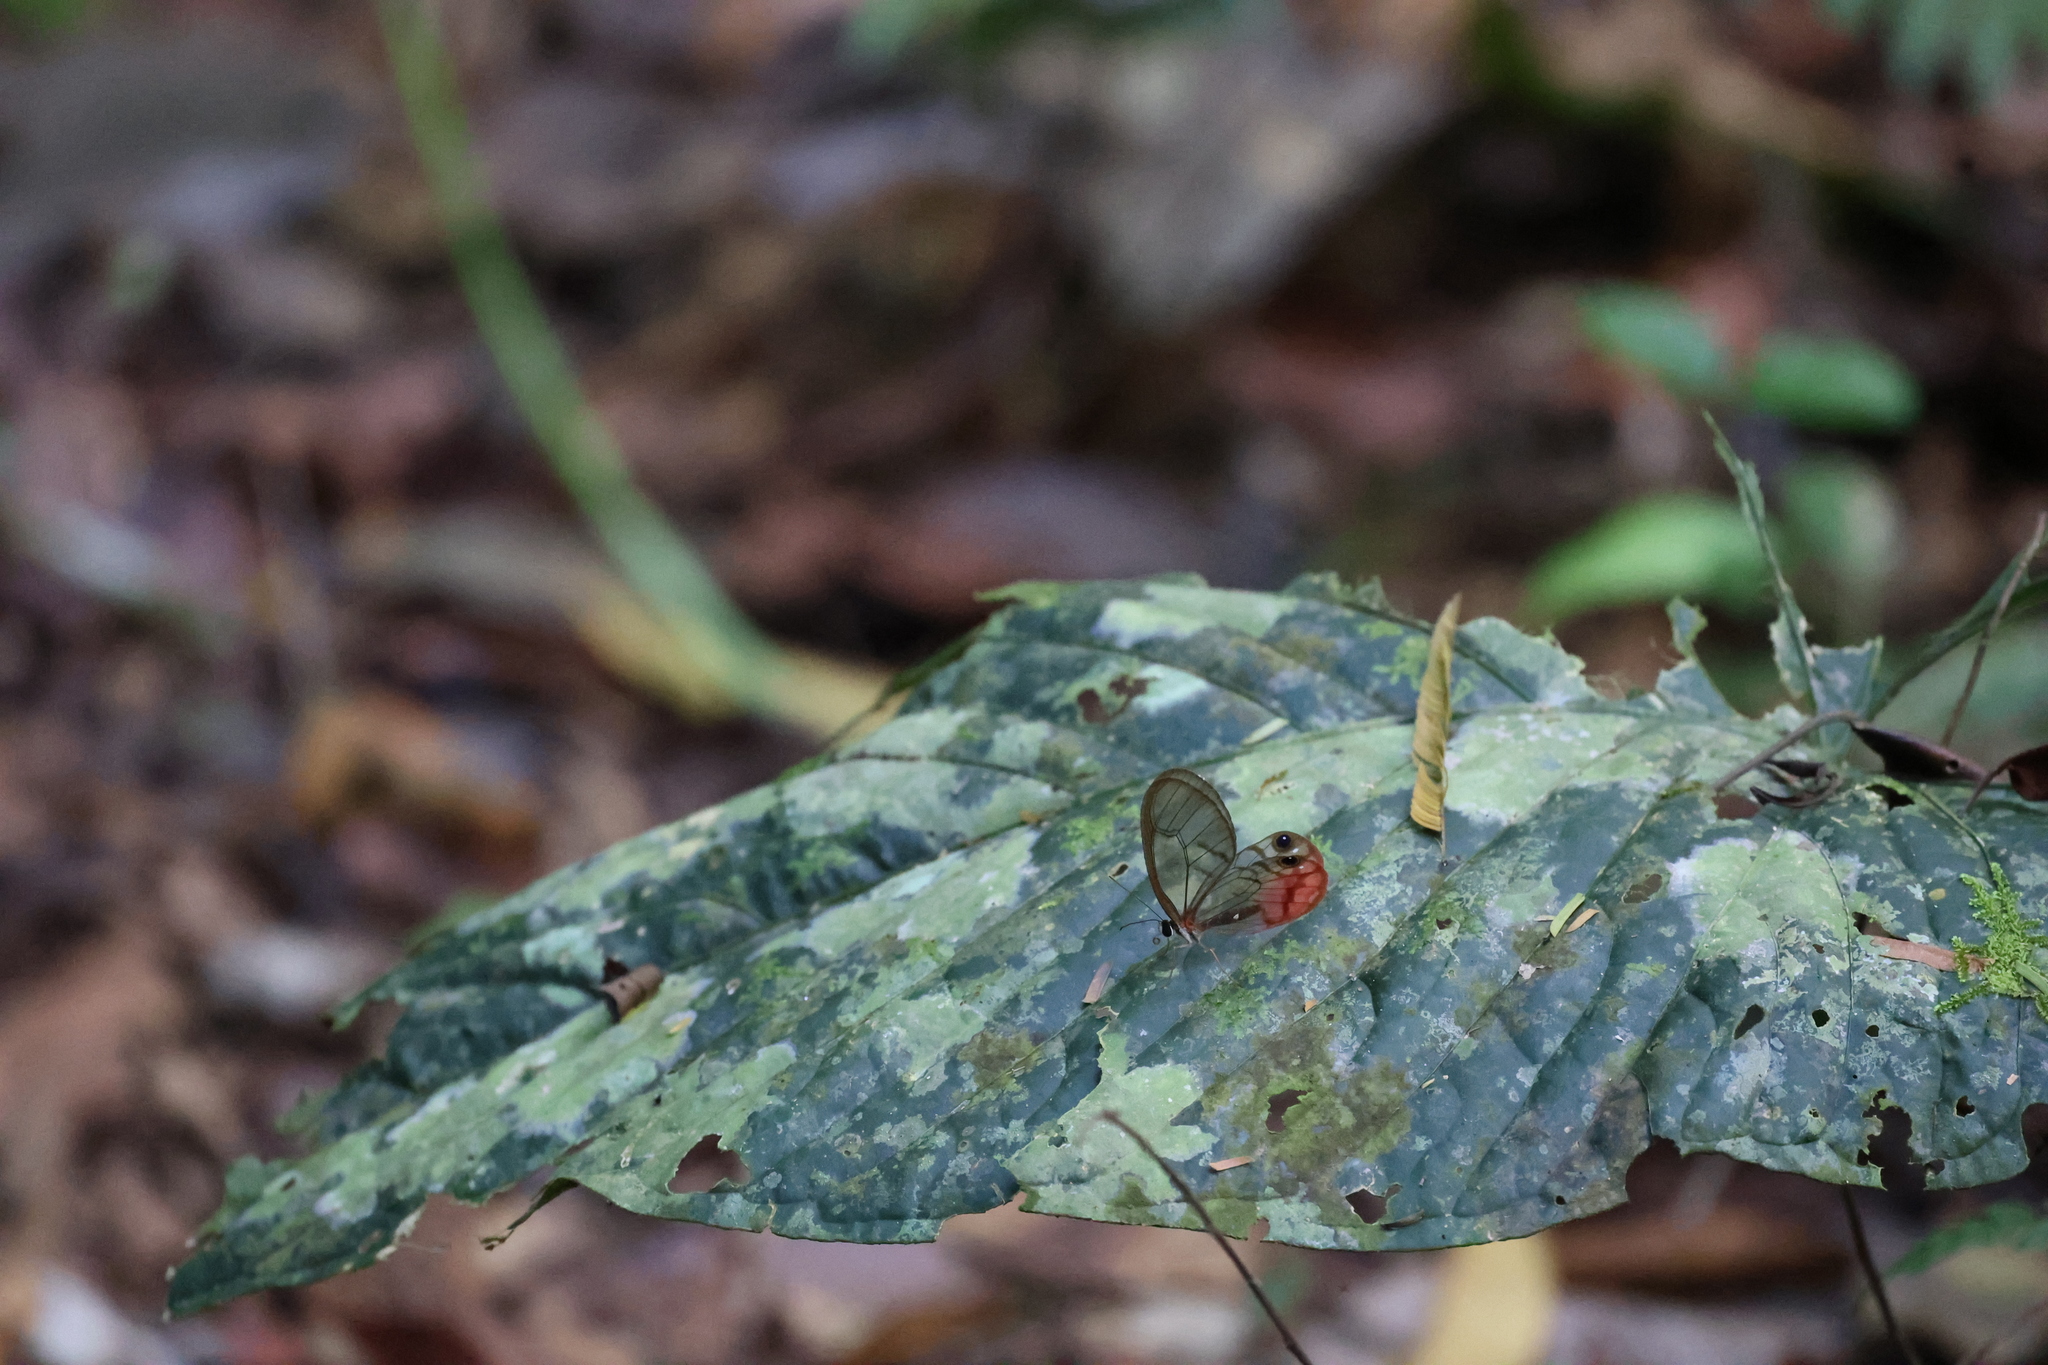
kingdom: Animalia
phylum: Arthropoda
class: Insecta
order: Lepidoptera
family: Nymphalidae
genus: Cithaerias
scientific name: Cithaerias pireta
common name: Rusted clearwing-satyr
